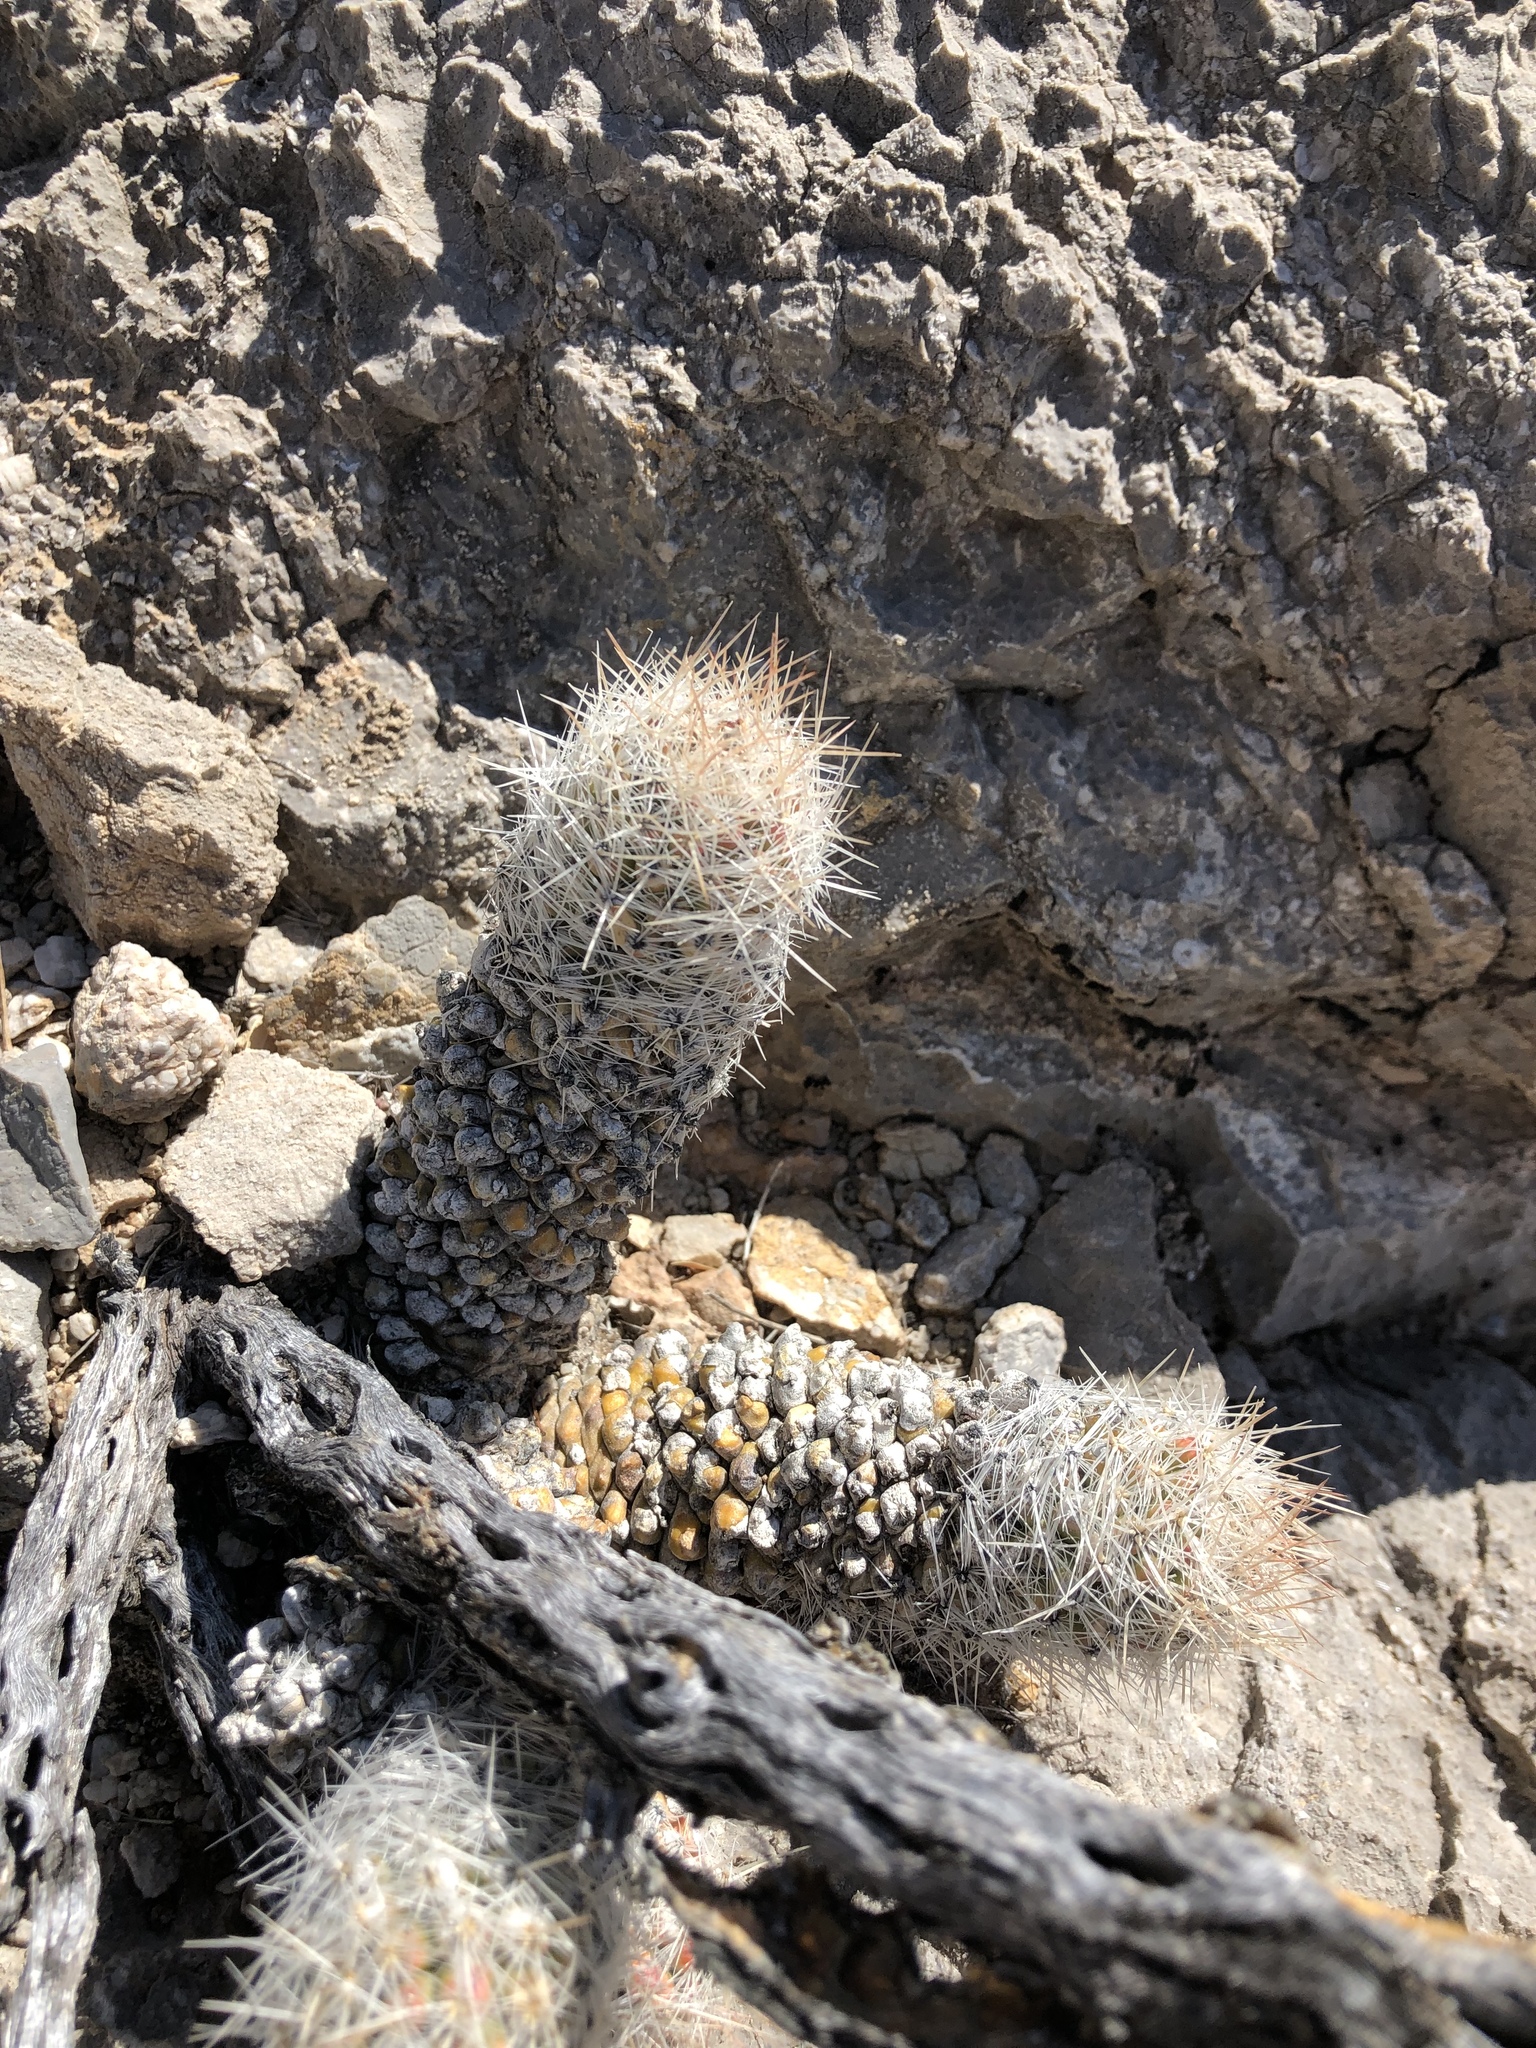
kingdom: Plantae
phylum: Tracheophyta
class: Magnoliopsida
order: Caryophyllales
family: Cactaceae
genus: Pelecyphora
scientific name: Pelecyphora tuberculosa
